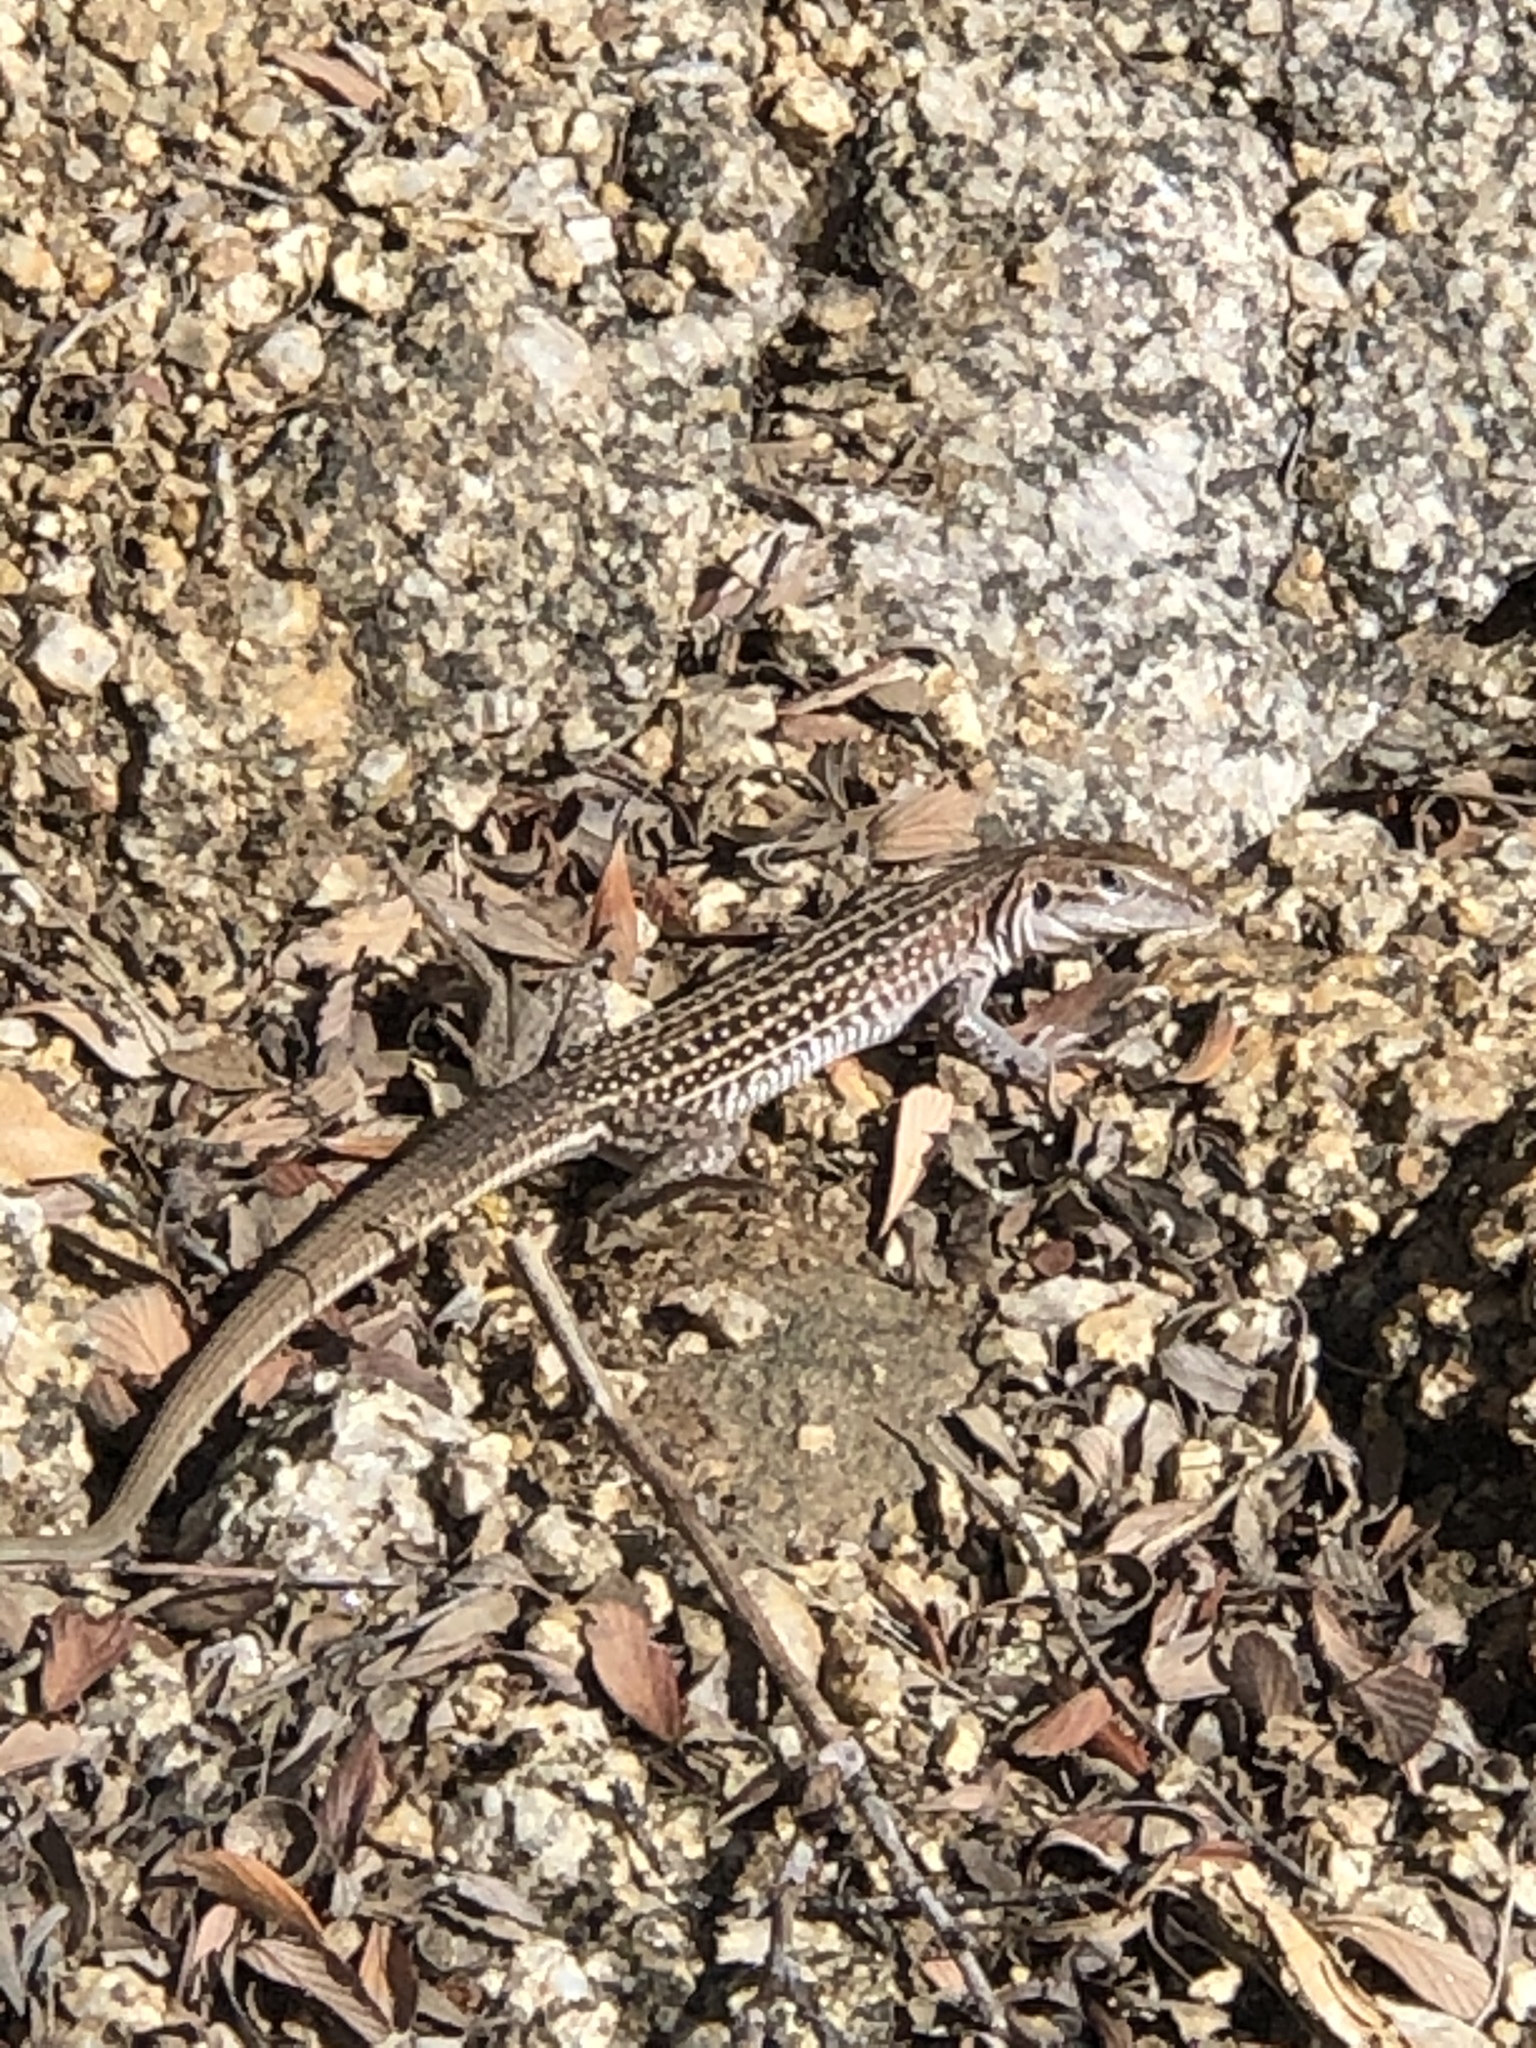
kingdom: Animalia
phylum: Chordata
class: Squamata
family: Teiidae
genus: Aspidoscelis
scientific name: Aspidoscelis exsanguis
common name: Chihuahuan spotted whiptail
